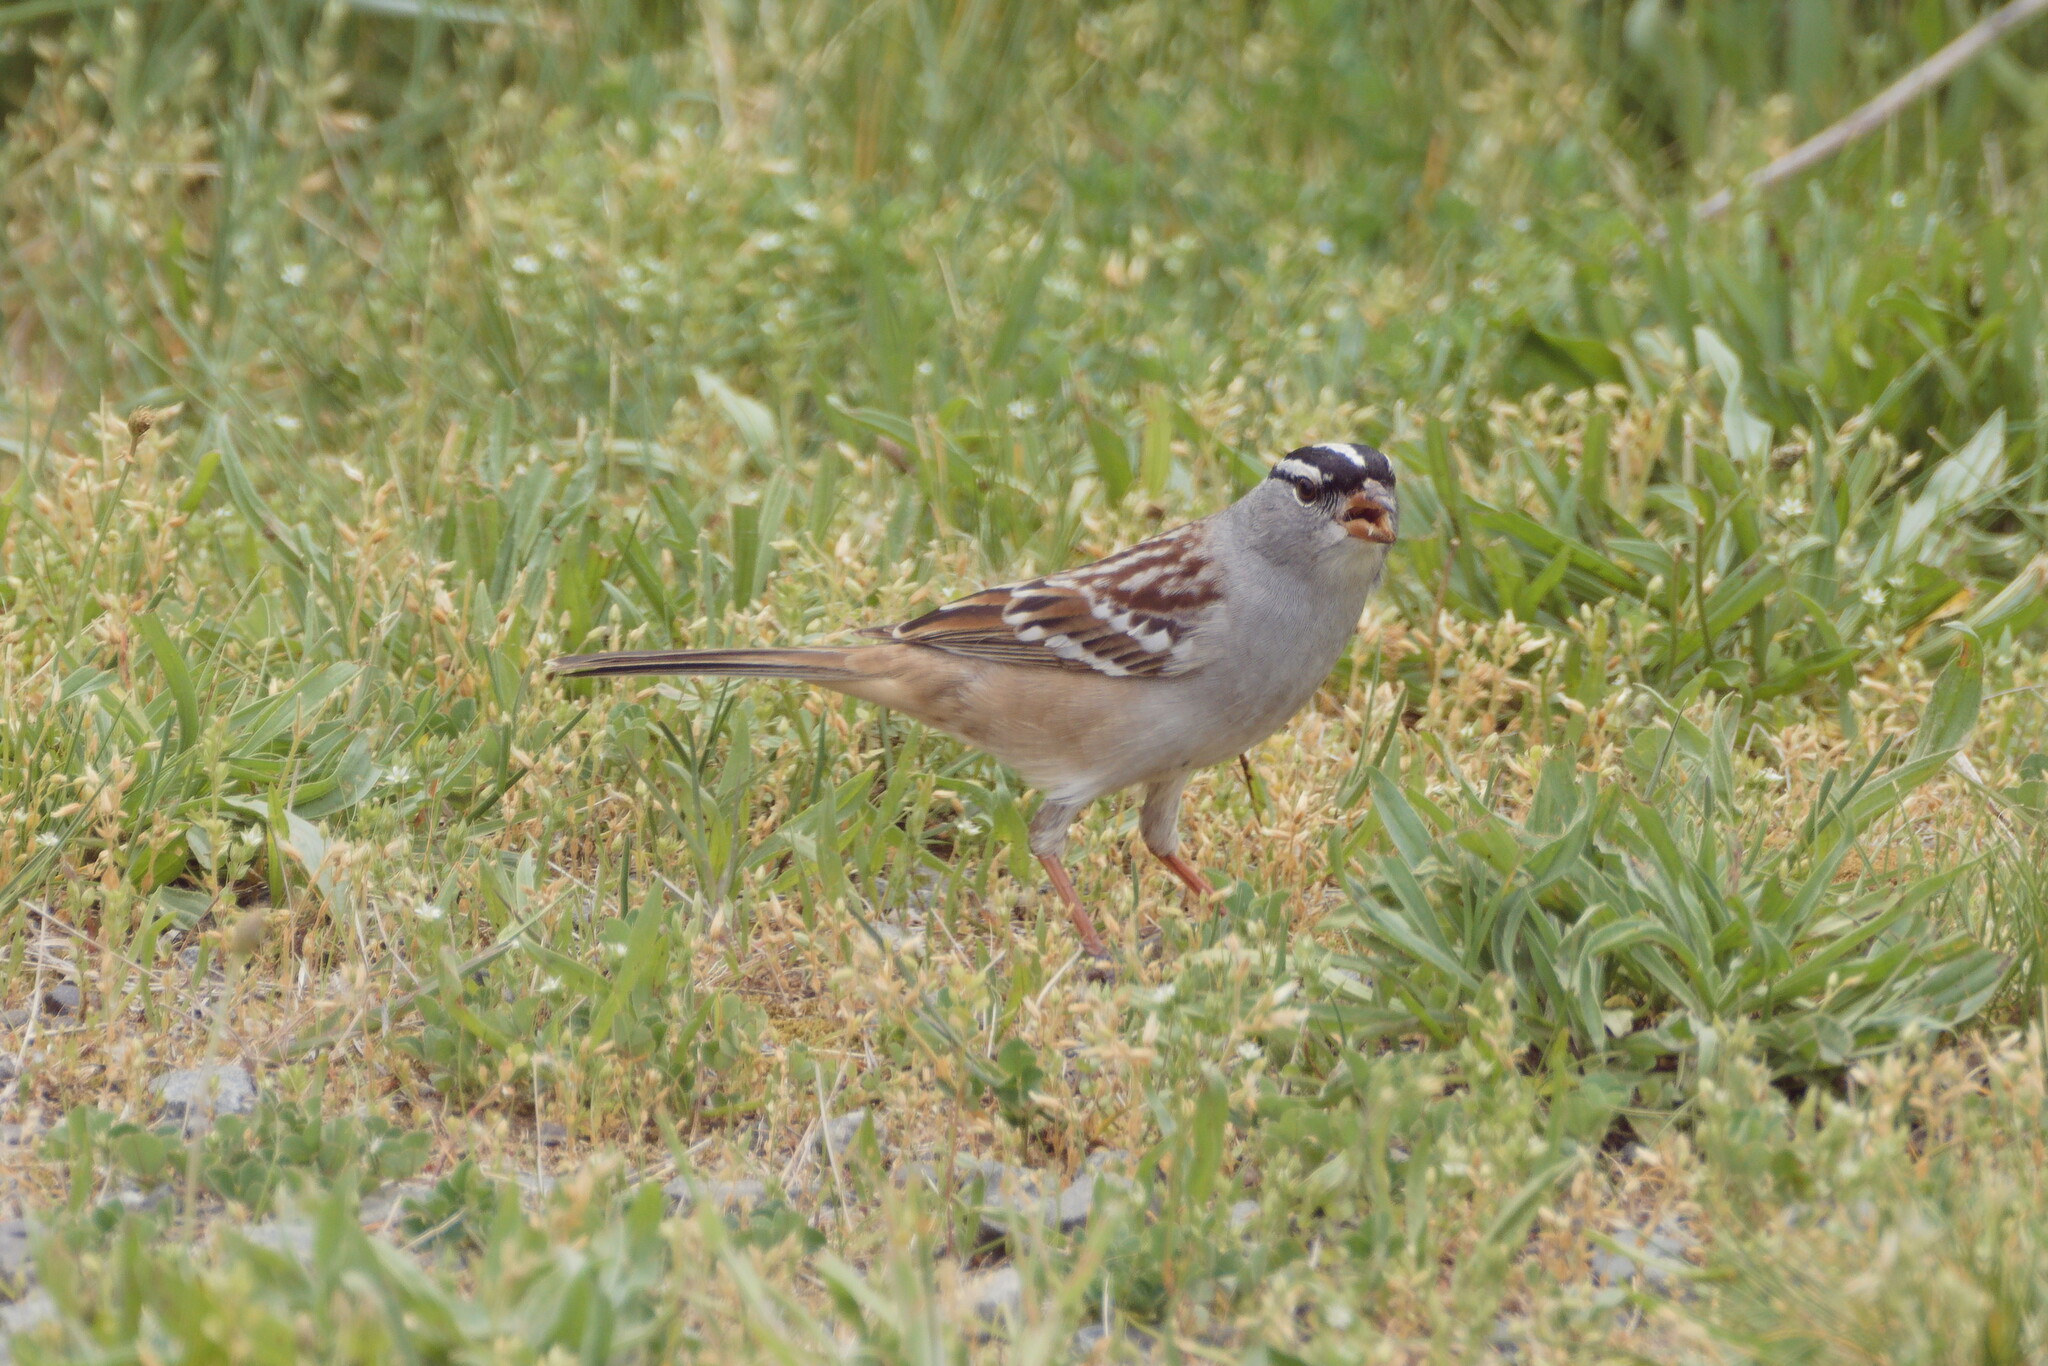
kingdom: Animalia
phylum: Chordata
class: Aves
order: Passeriformes
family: Passerellidae
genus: Zonotrichia
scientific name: Zonotrichia leucophrys
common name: White-crowned sparrow
